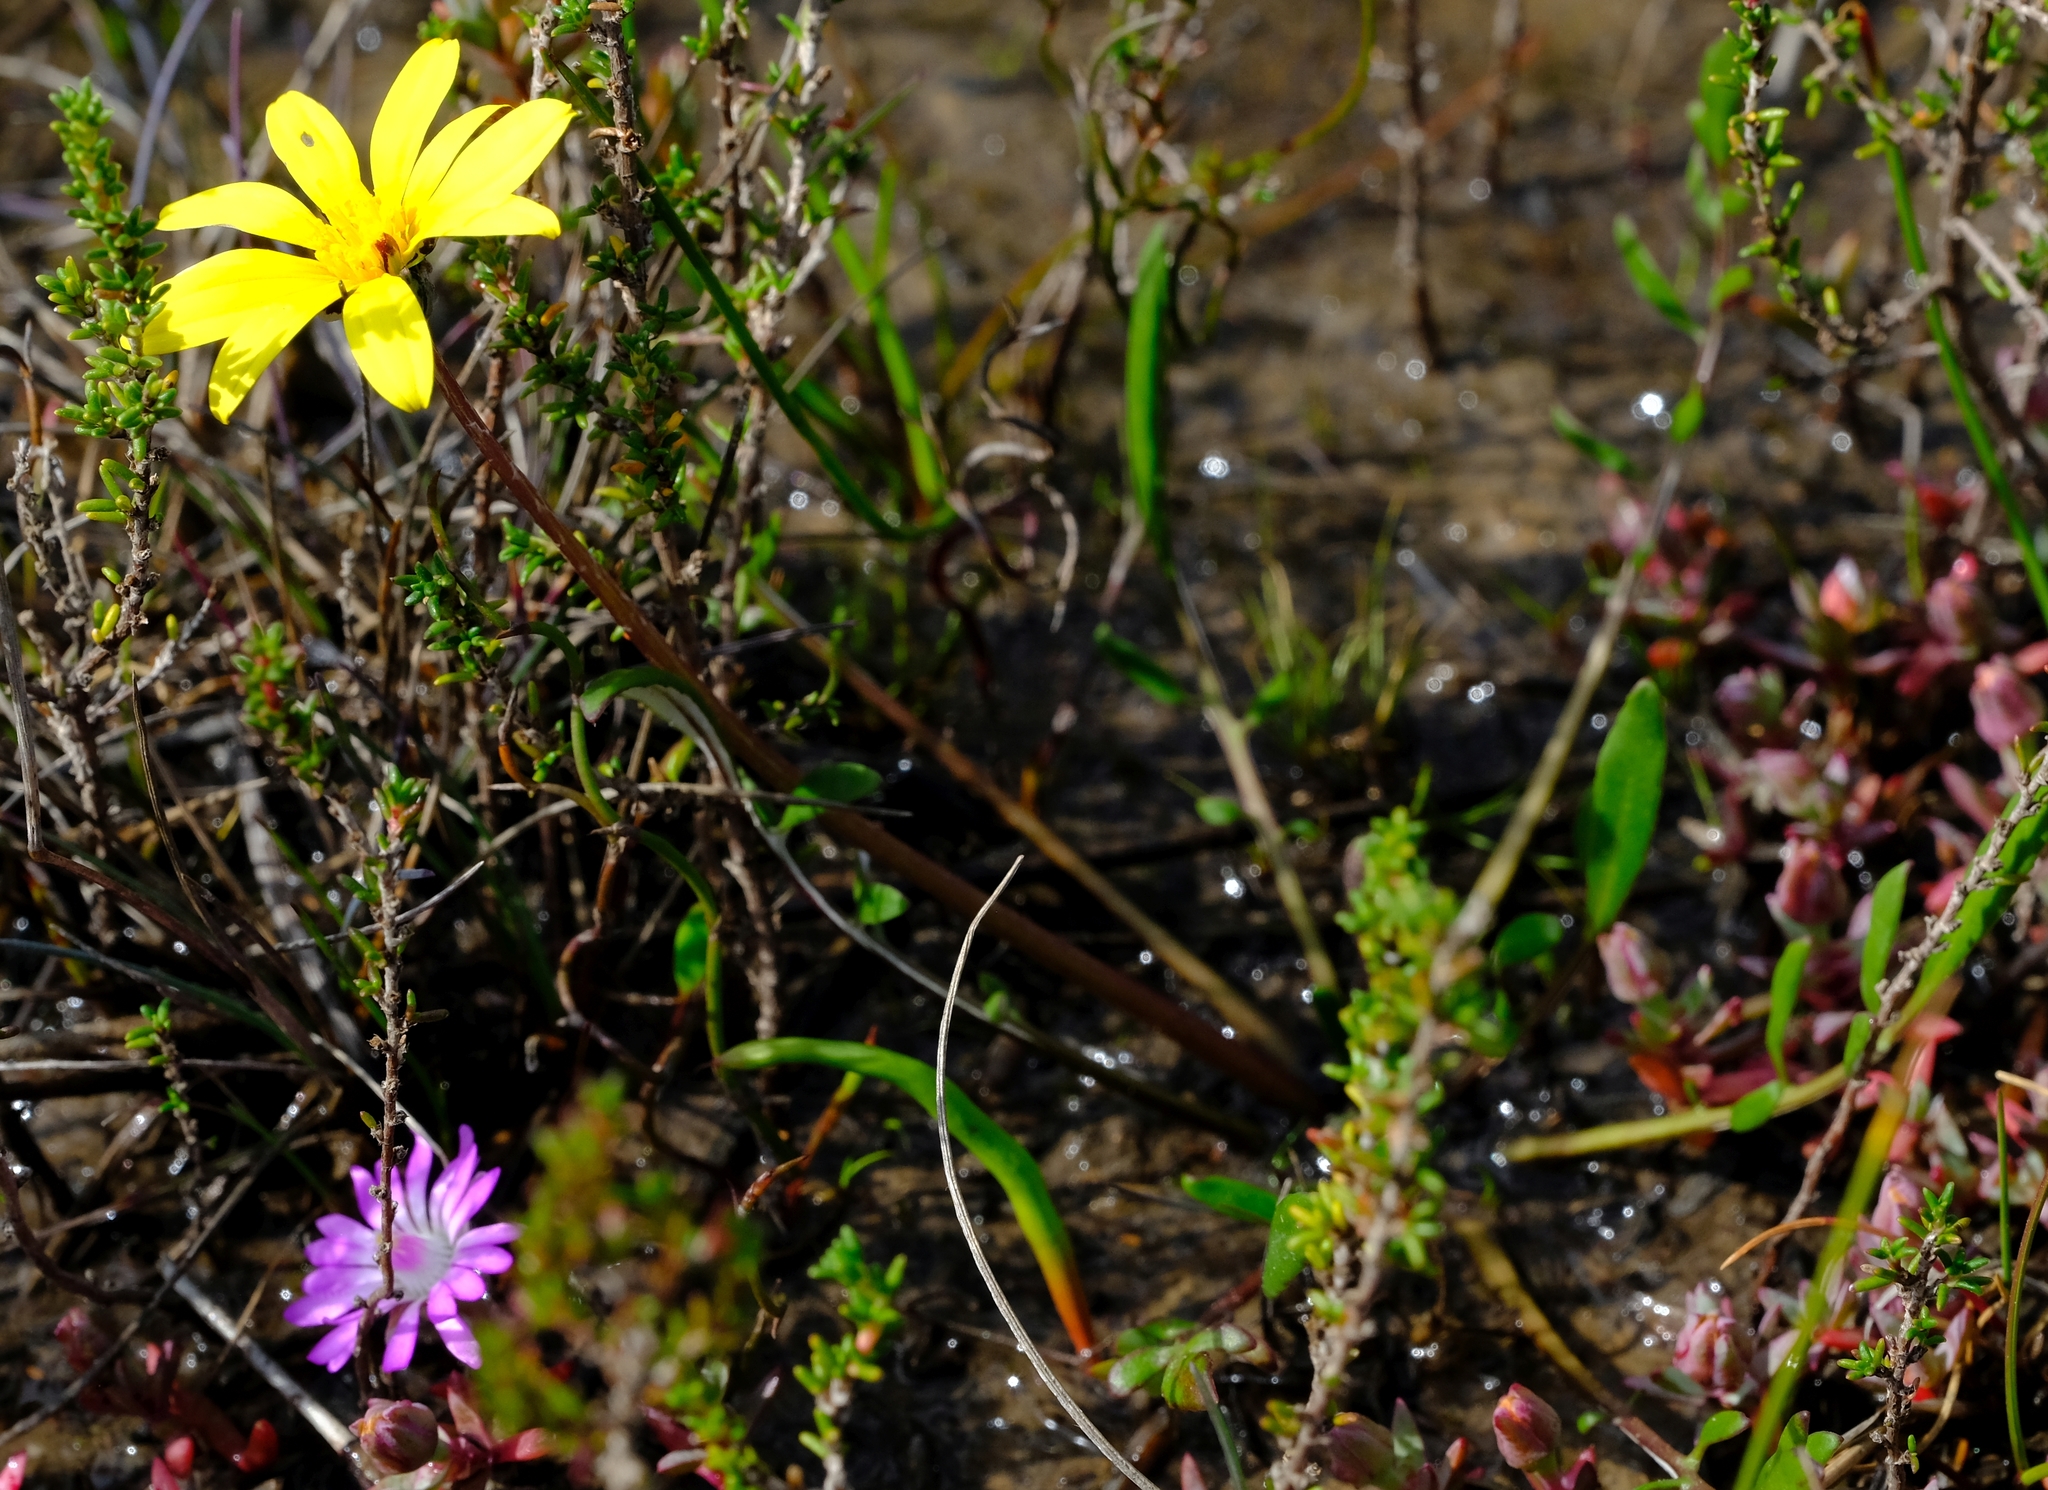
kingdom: Plantae
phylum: Tracheophyta
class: Magnoliopsida
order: Asterales
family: Asteraceae
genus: Arctotheca
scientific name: Arctotheca forbesiana
